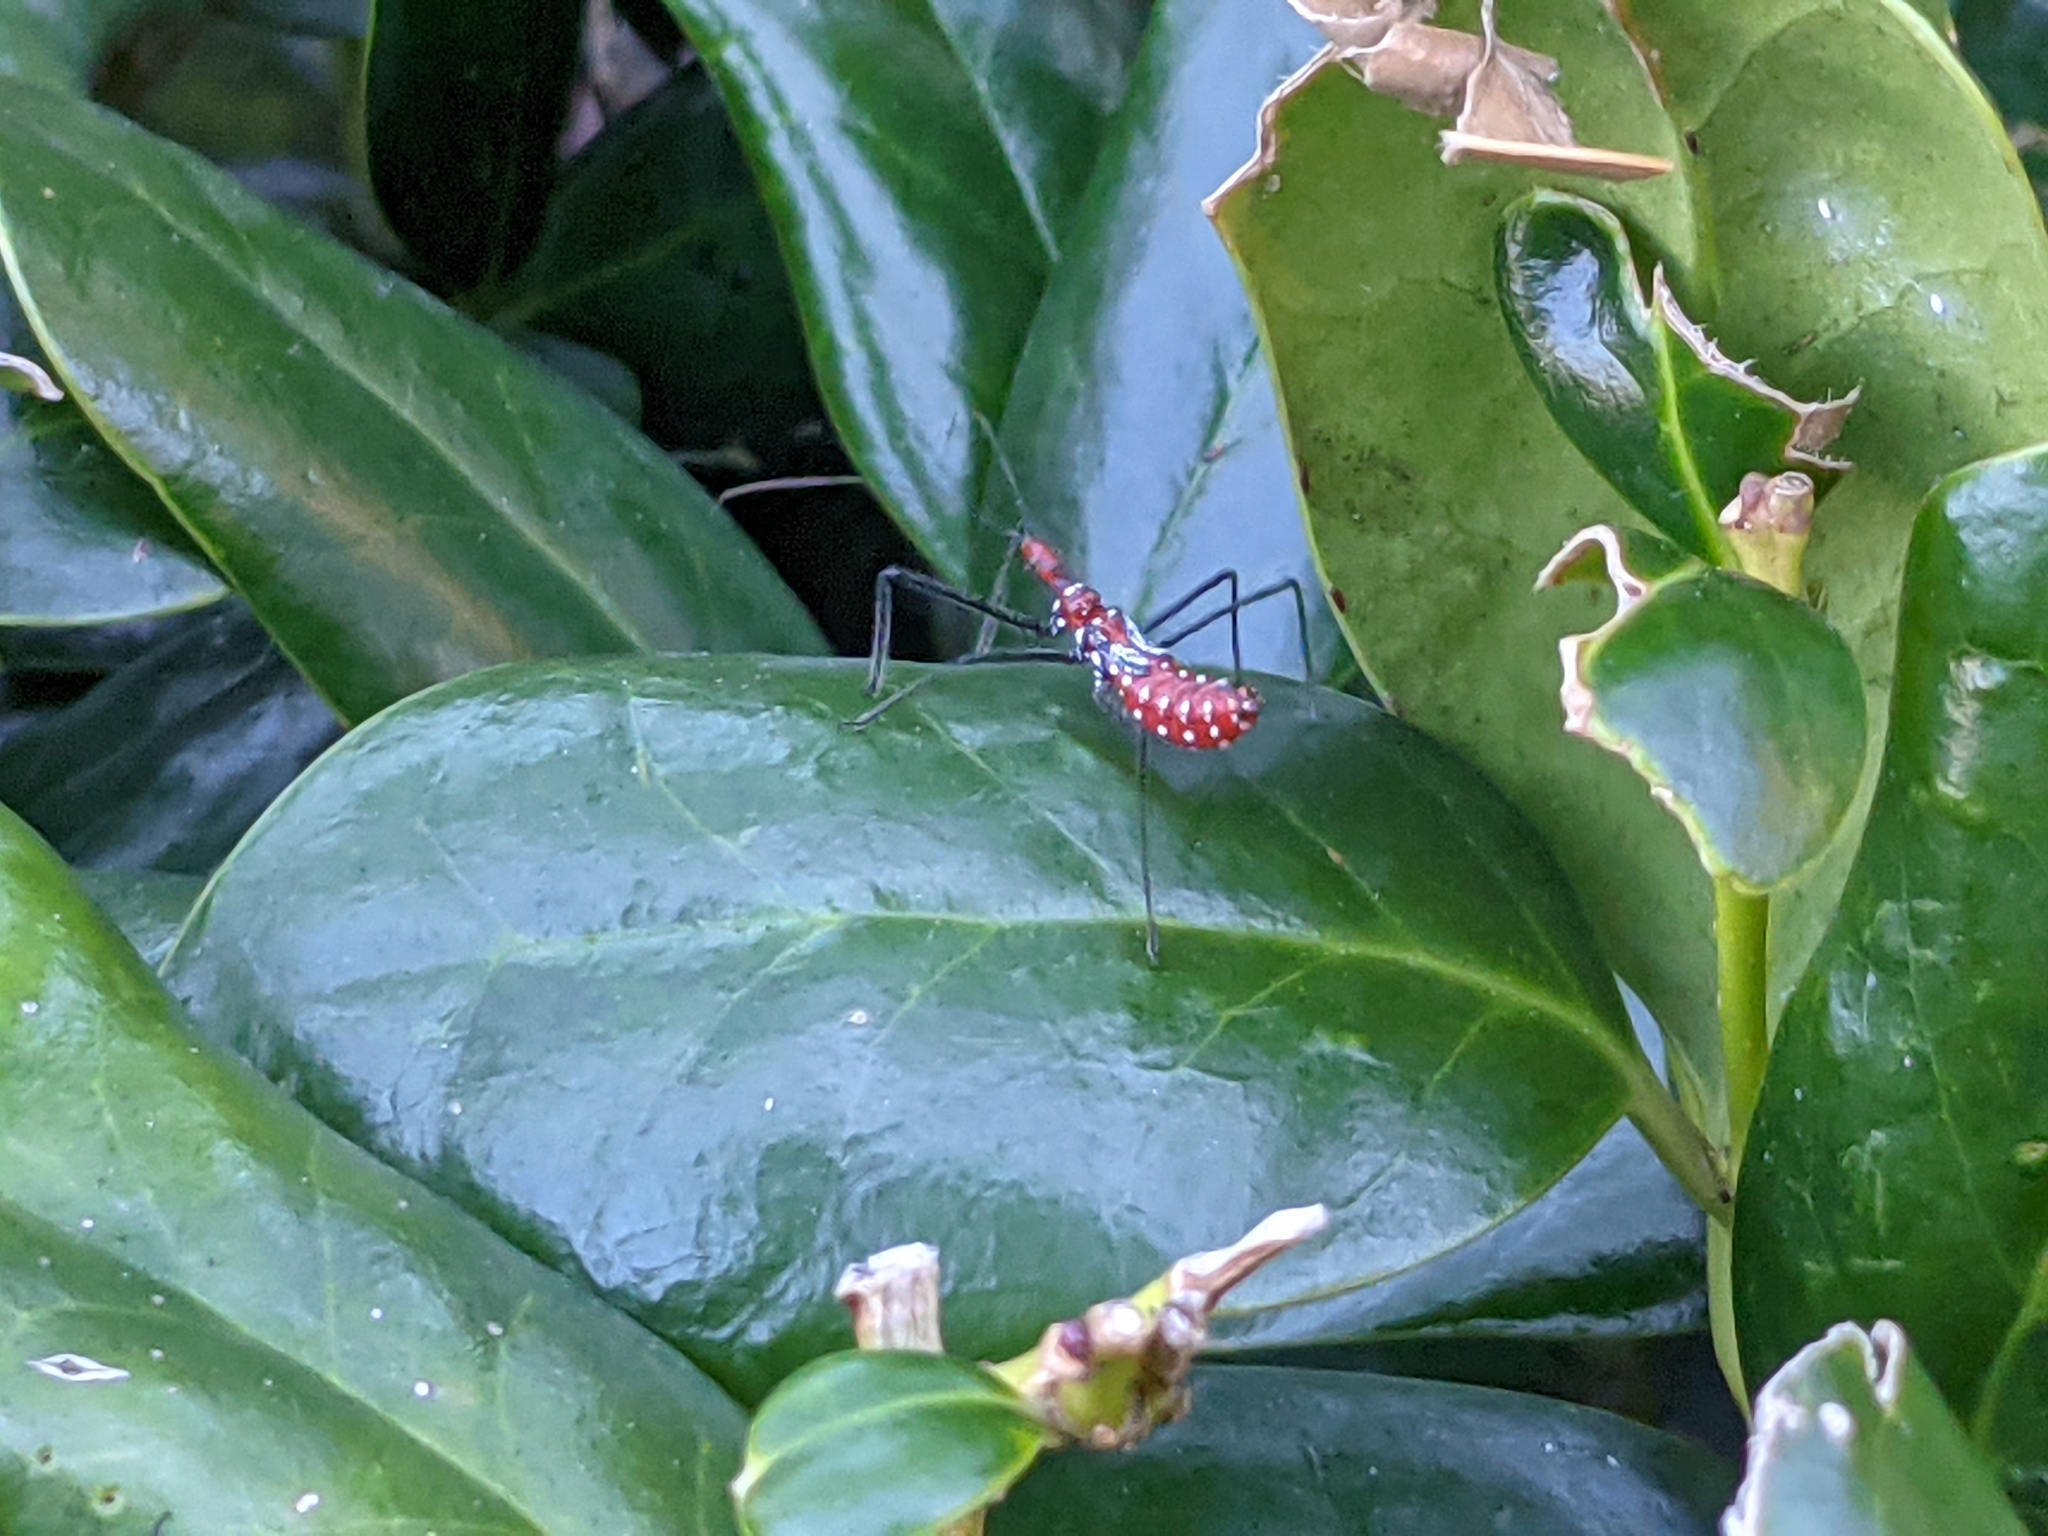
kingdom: Animalia
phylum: Arthropoda
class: Insecta
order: Hemiptera
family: Reduviidae
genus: Zelus
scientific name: Zelus longipes
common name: Milkweed assassin bug
